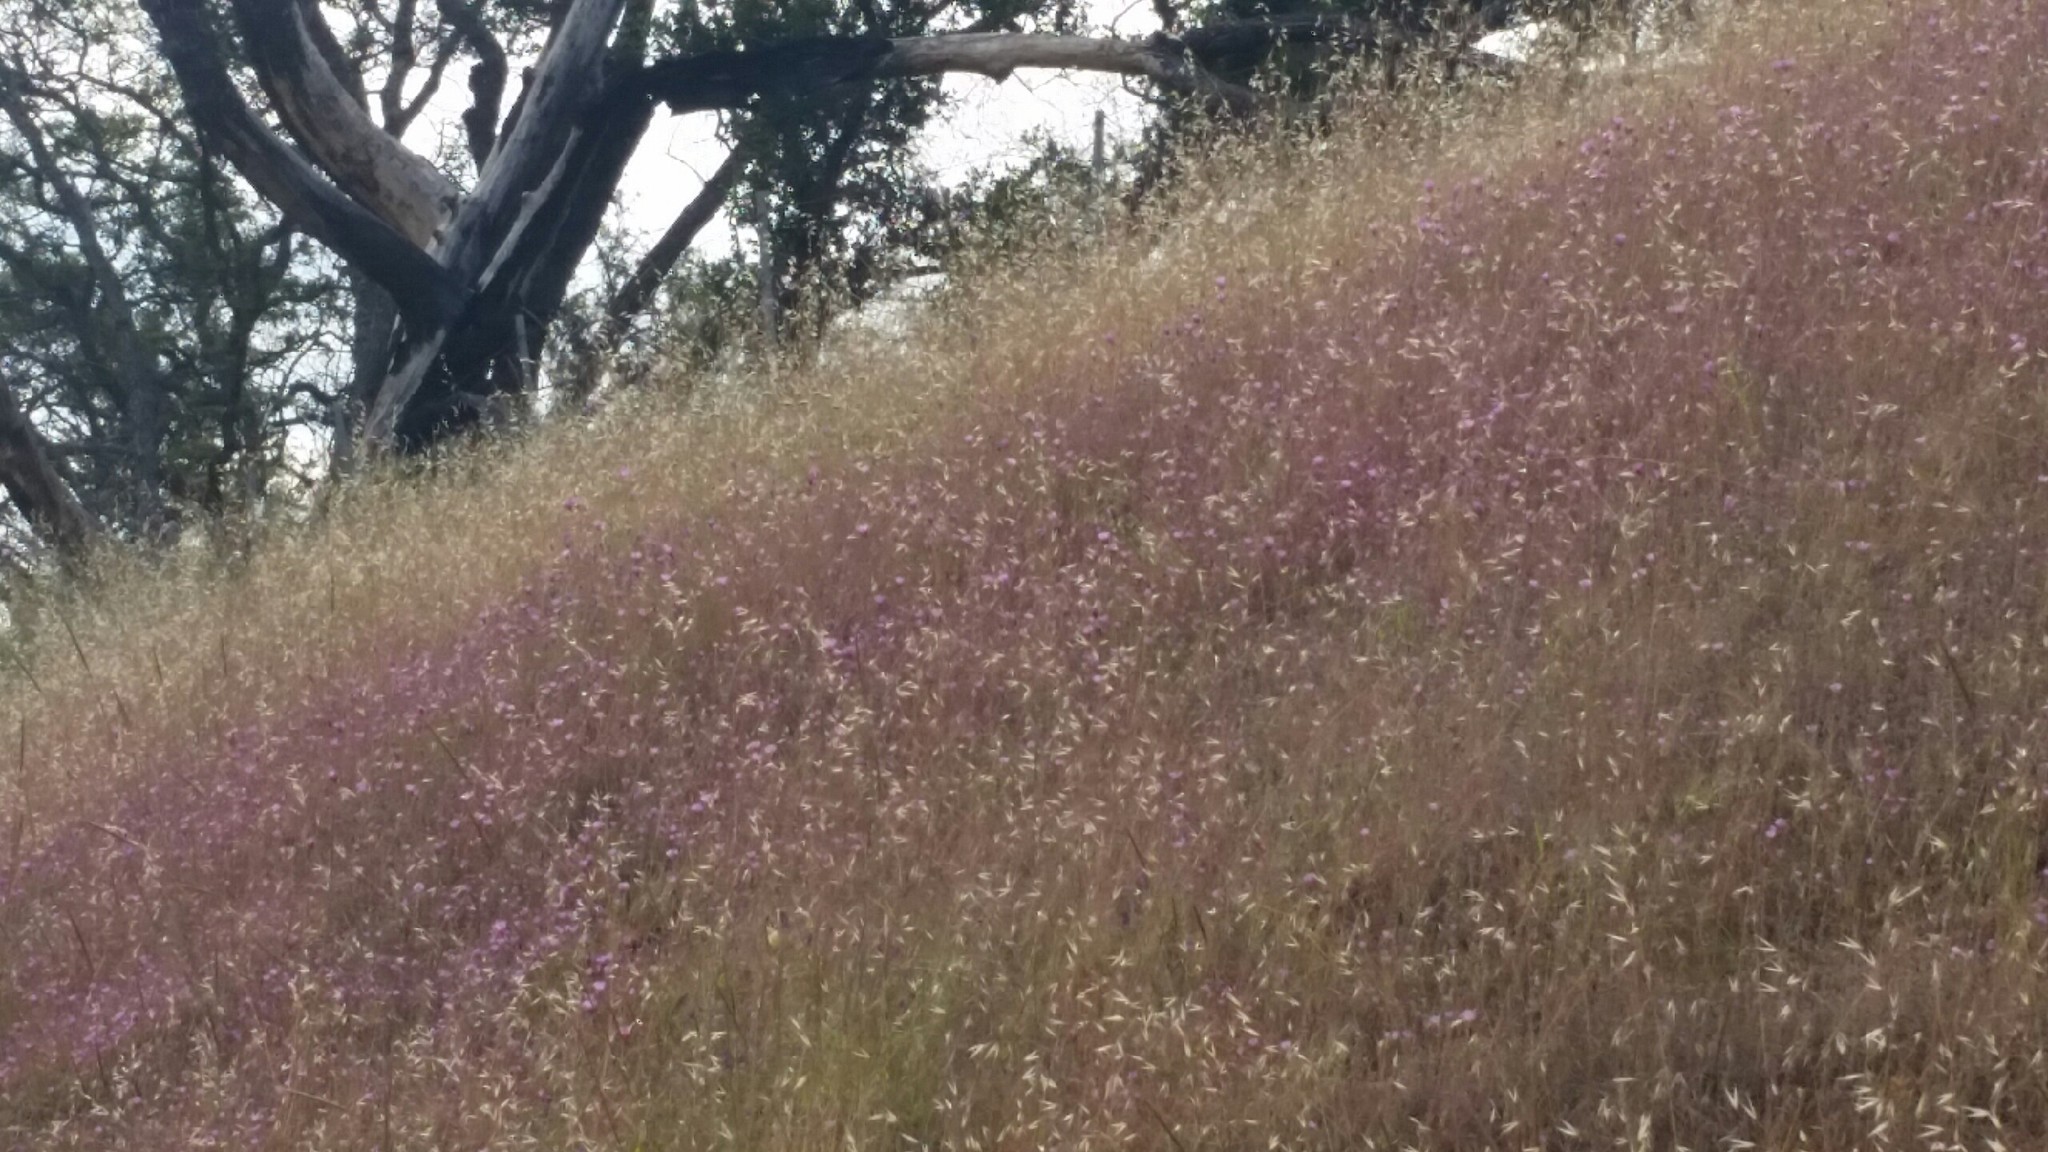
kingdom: Plantae
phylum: Tracheophyta
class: Magnoliopsida
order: Myrtales
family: Onagraceae
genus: Clarkia
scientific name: Clarkia amoena
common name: Godetia
